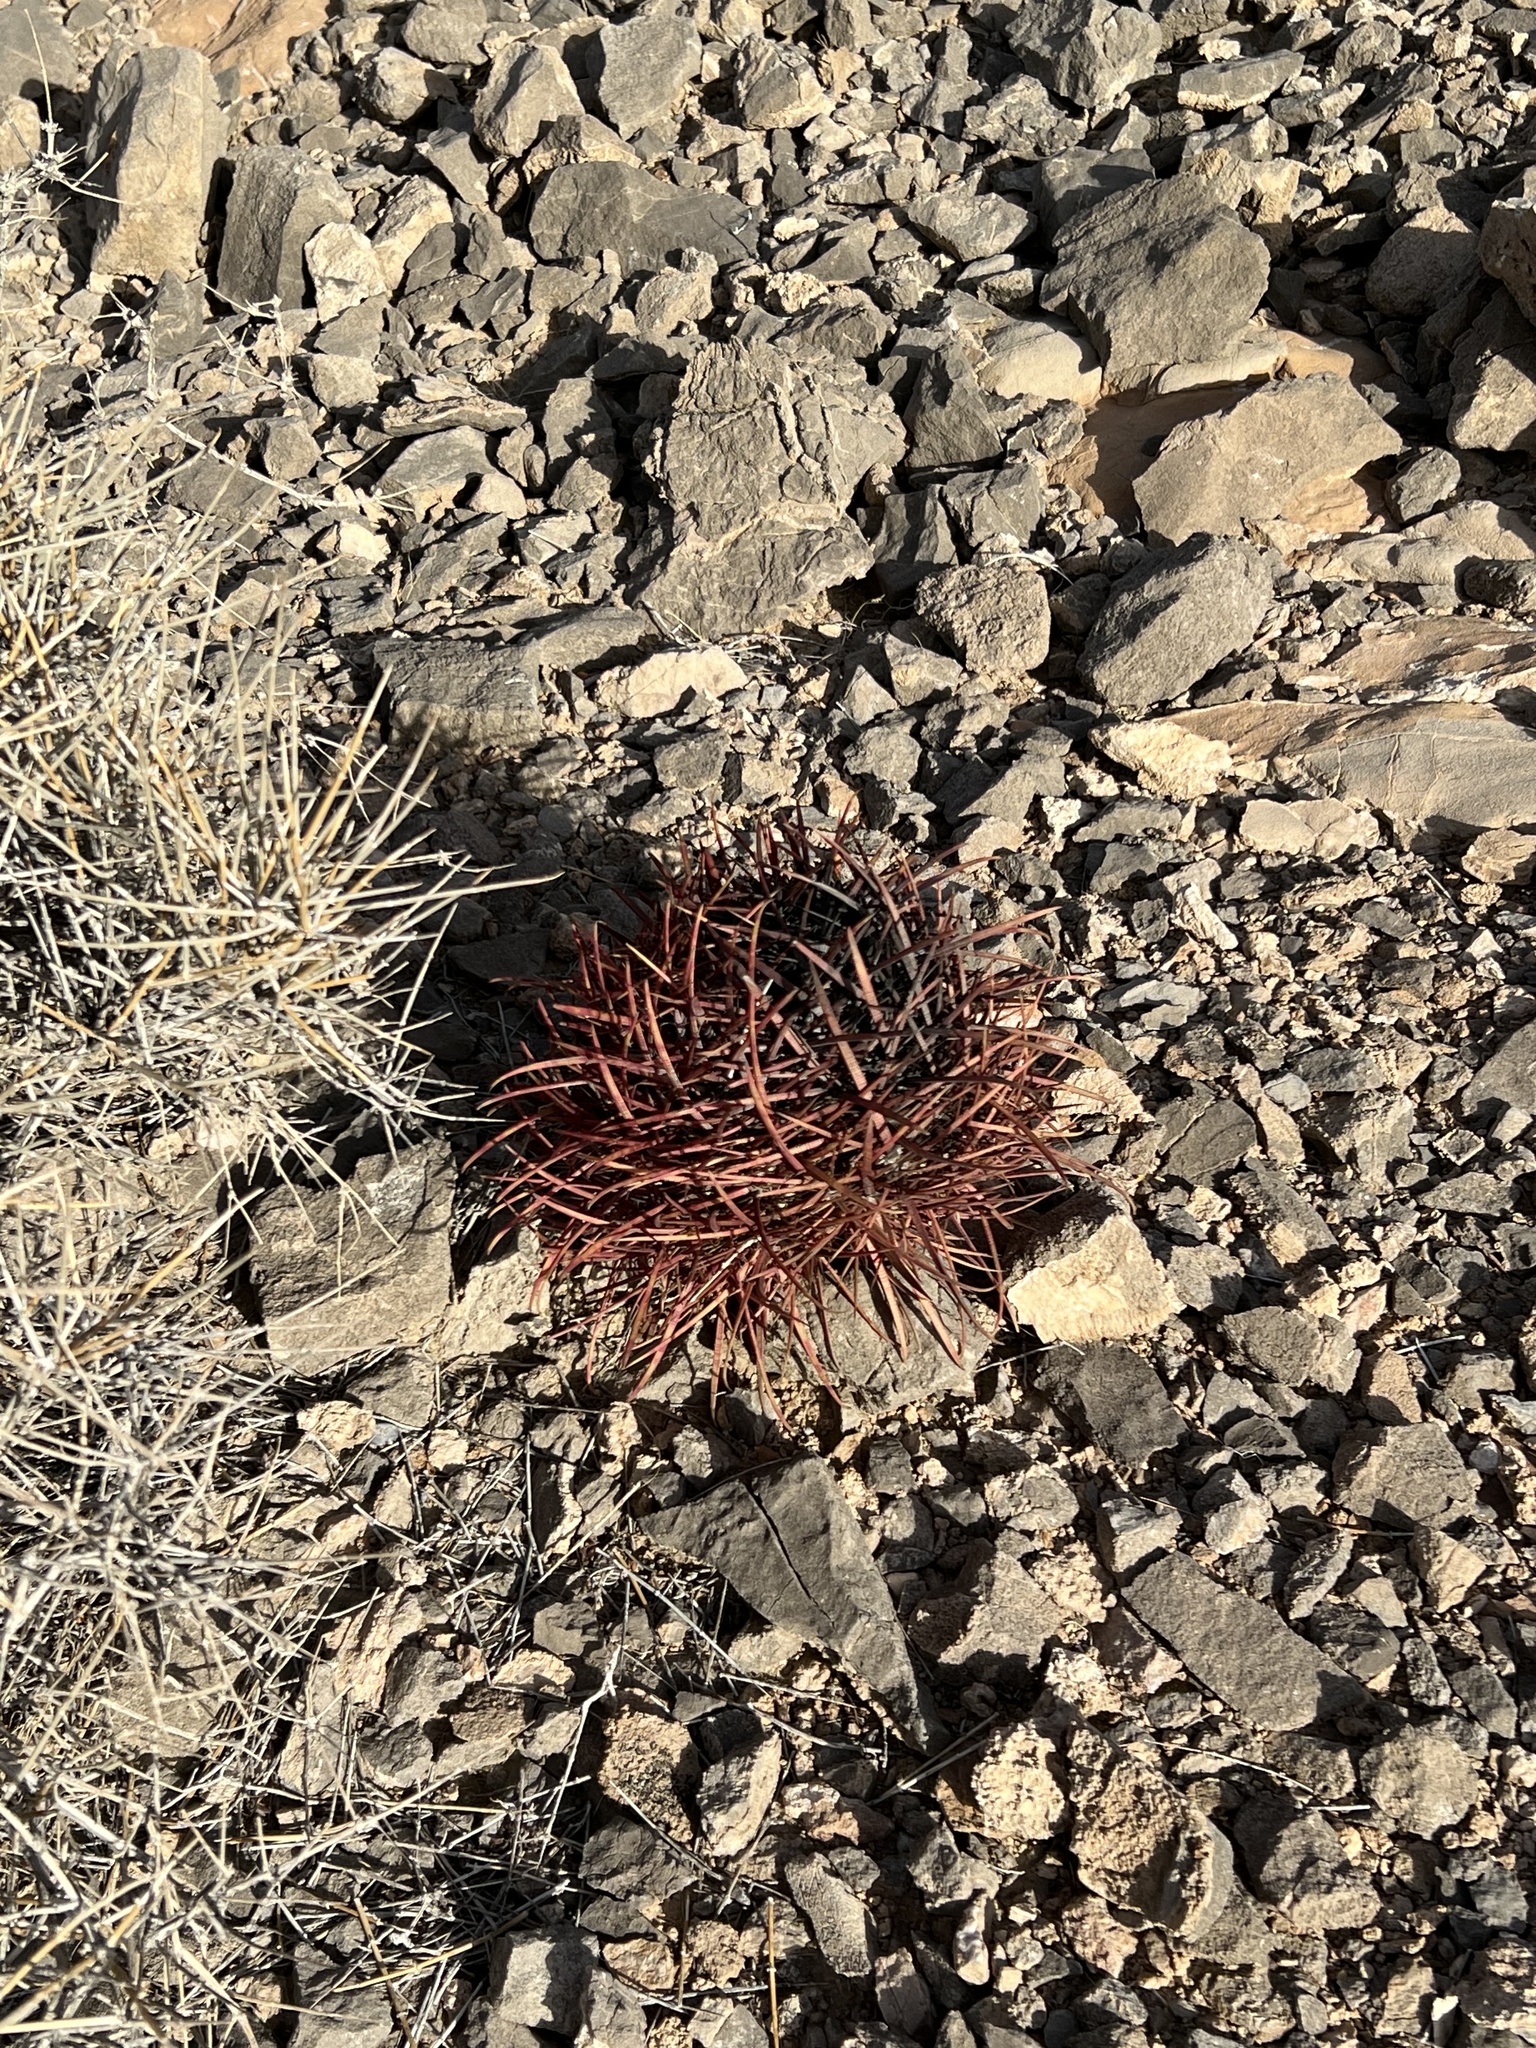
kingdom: Plantae
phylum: Tracheophyta
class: Magnoliopsida
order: Caryophyllales
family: Cactaceae
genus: Ferocactus
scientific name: Ferocactus cylindraceus
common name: California barrel cactus
